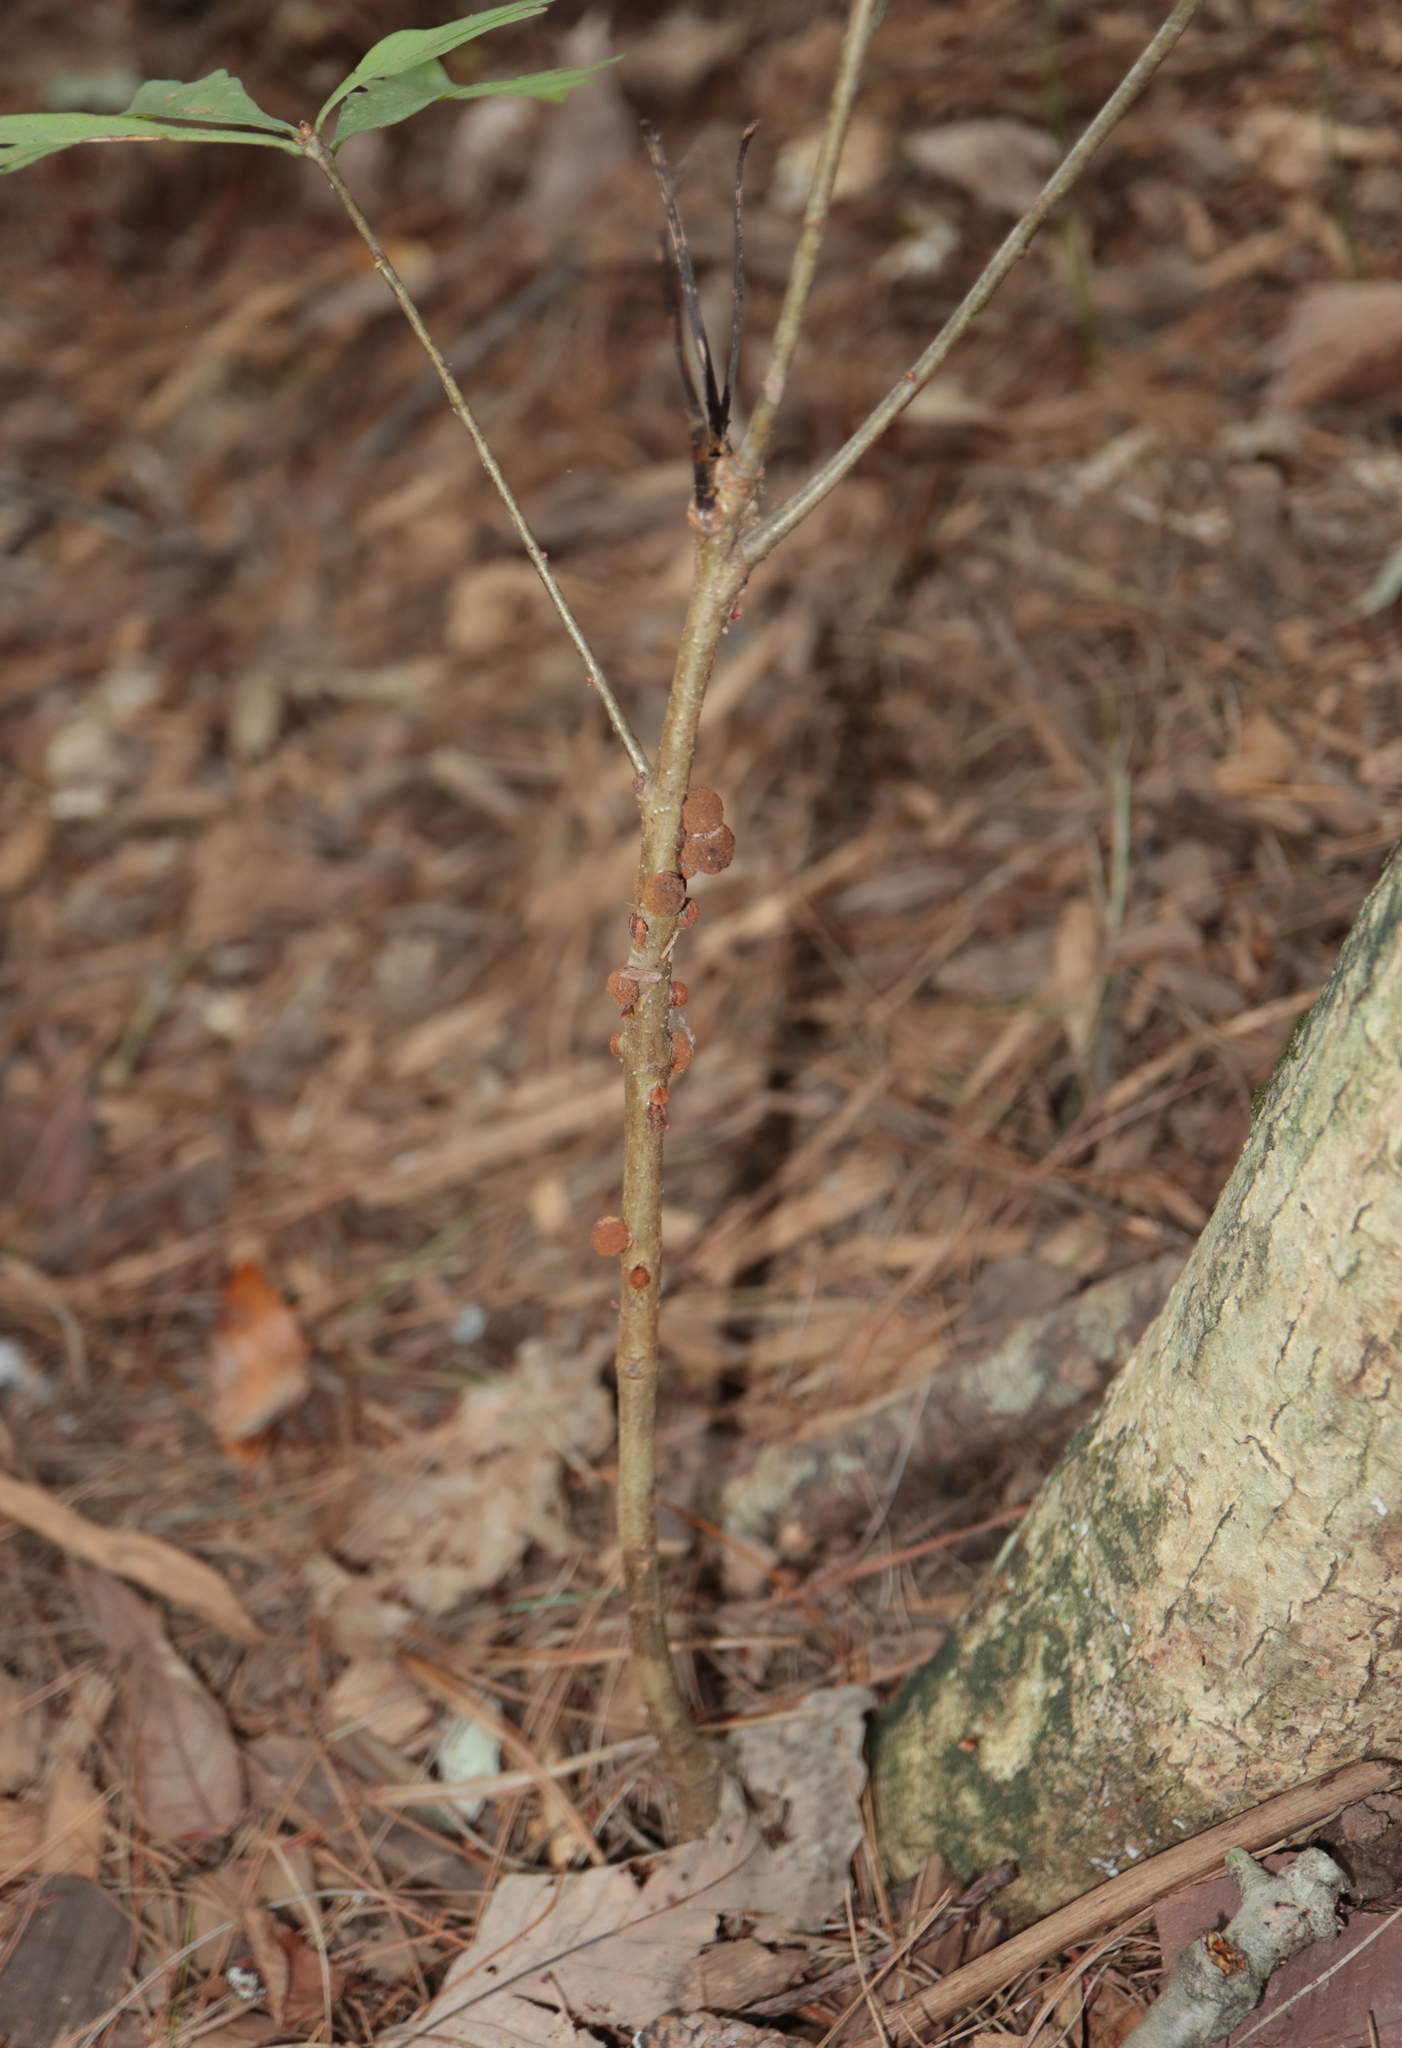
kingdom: Animalia
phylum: Arthropoda
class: Insecta
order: Hymenoptera
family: Cynipidae
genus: Disholcaspis
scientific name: Disholcaspis
